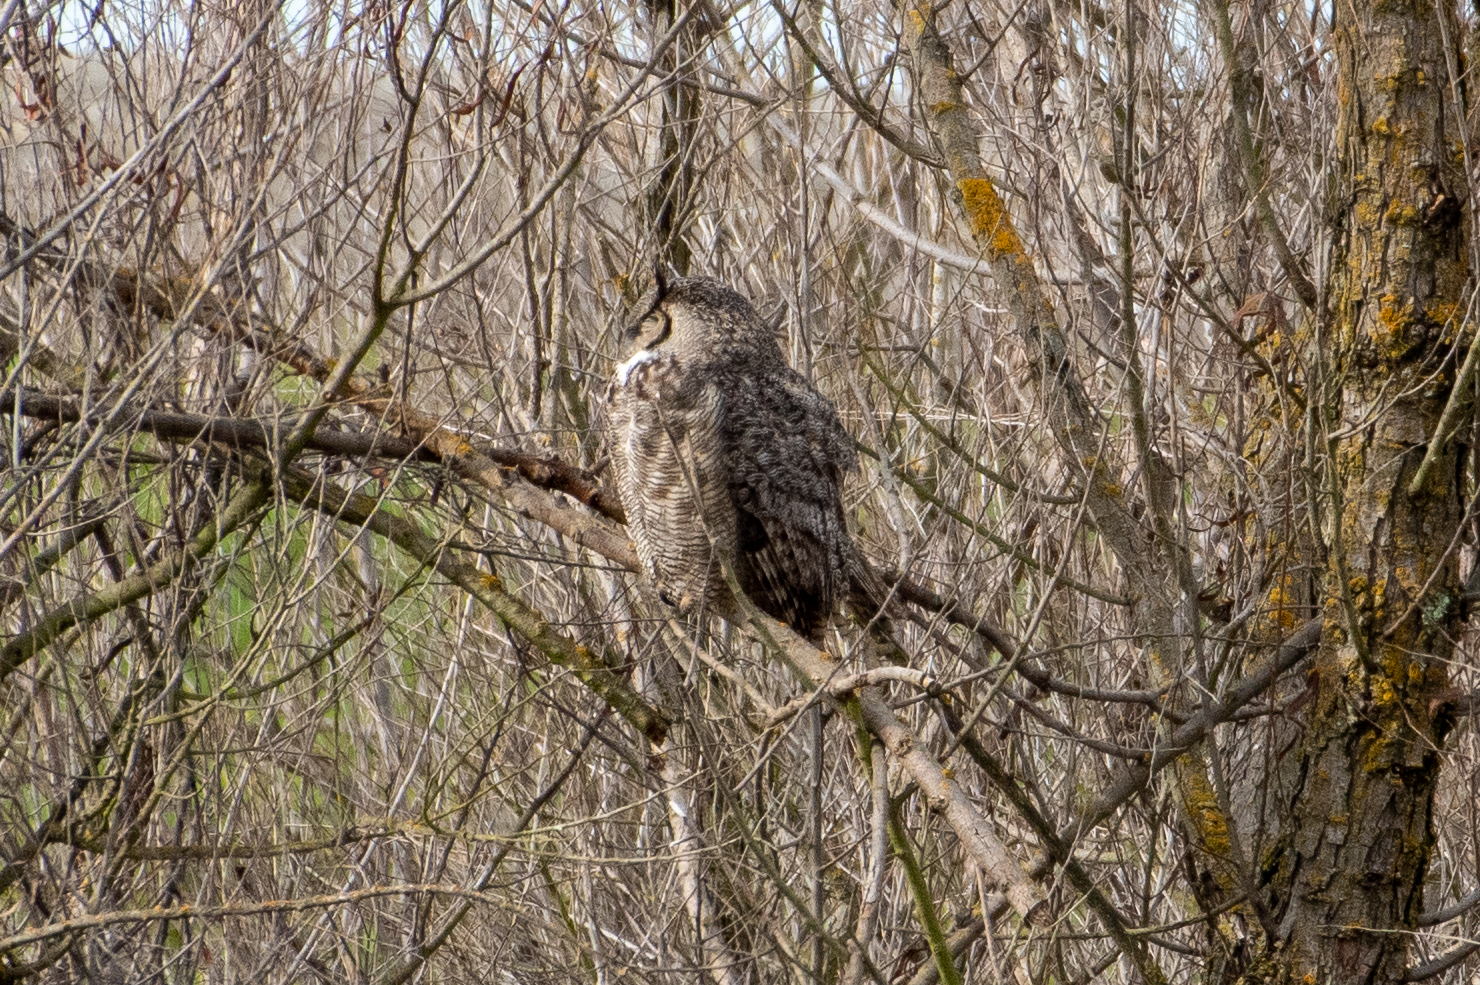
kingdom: Animalia
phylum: Chordata
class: Aves
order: Strigiformes
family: Strigidae
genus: Bubo
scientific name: Bubo virginianus
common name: Great horned owl
